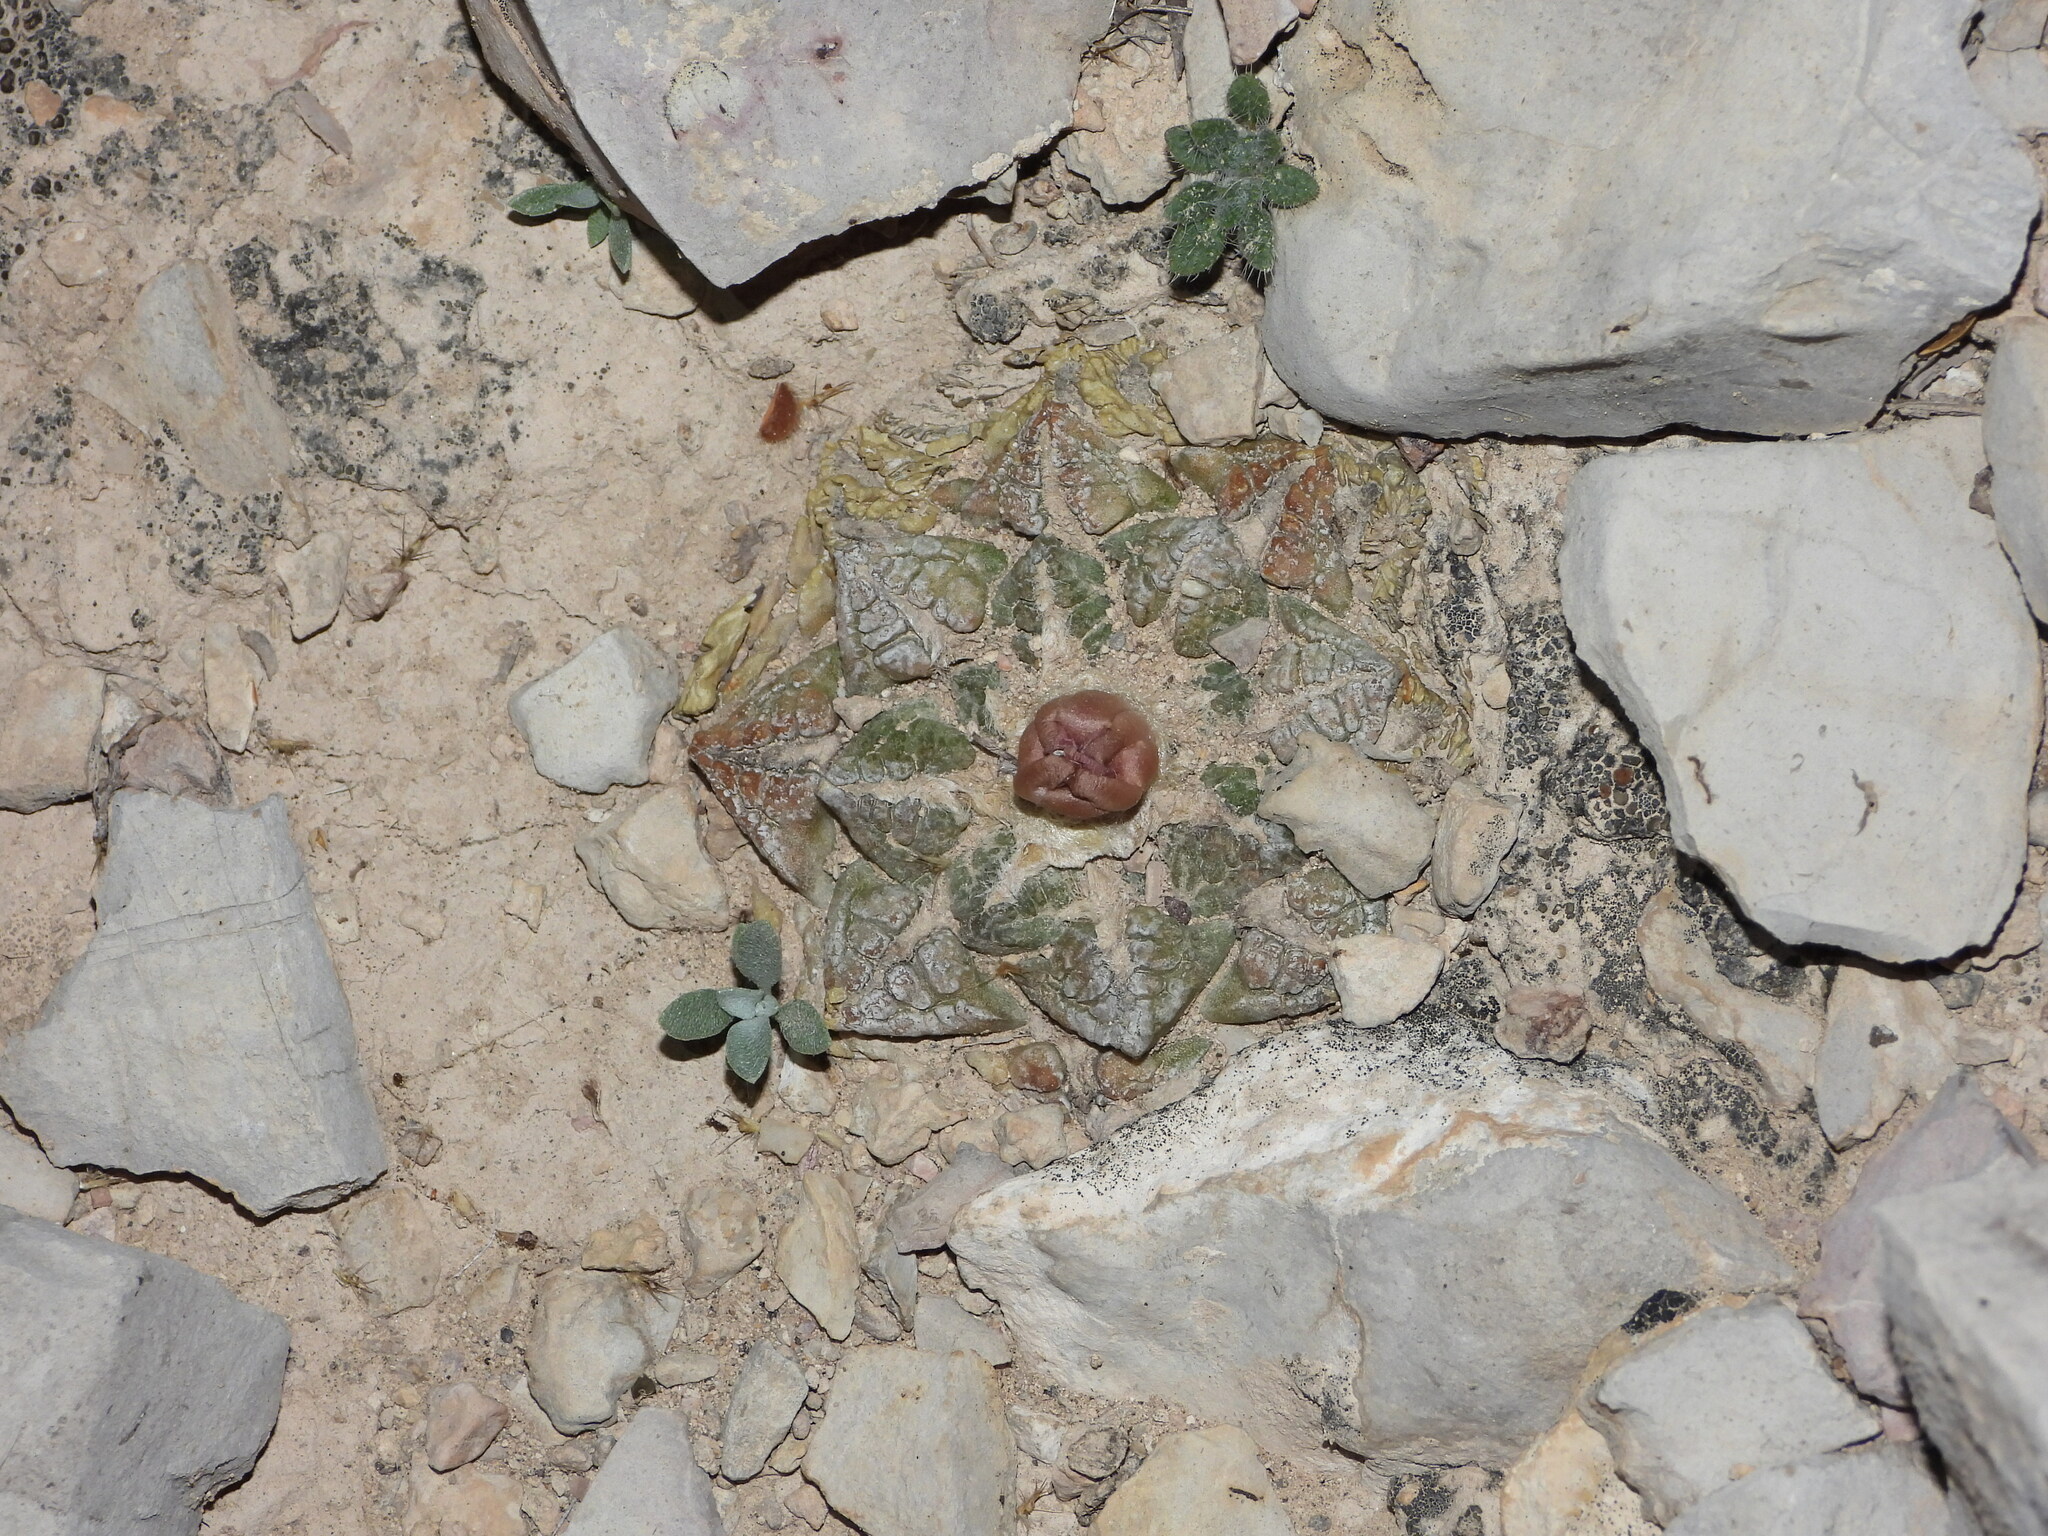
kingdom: Plantae
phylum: Tracheophyta
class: Magnoliopsida
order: Caryophyllales
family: Cactaceae
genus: Ariocarpus
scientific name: Ariocarpus fissuratus
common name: Chautle-living rock
